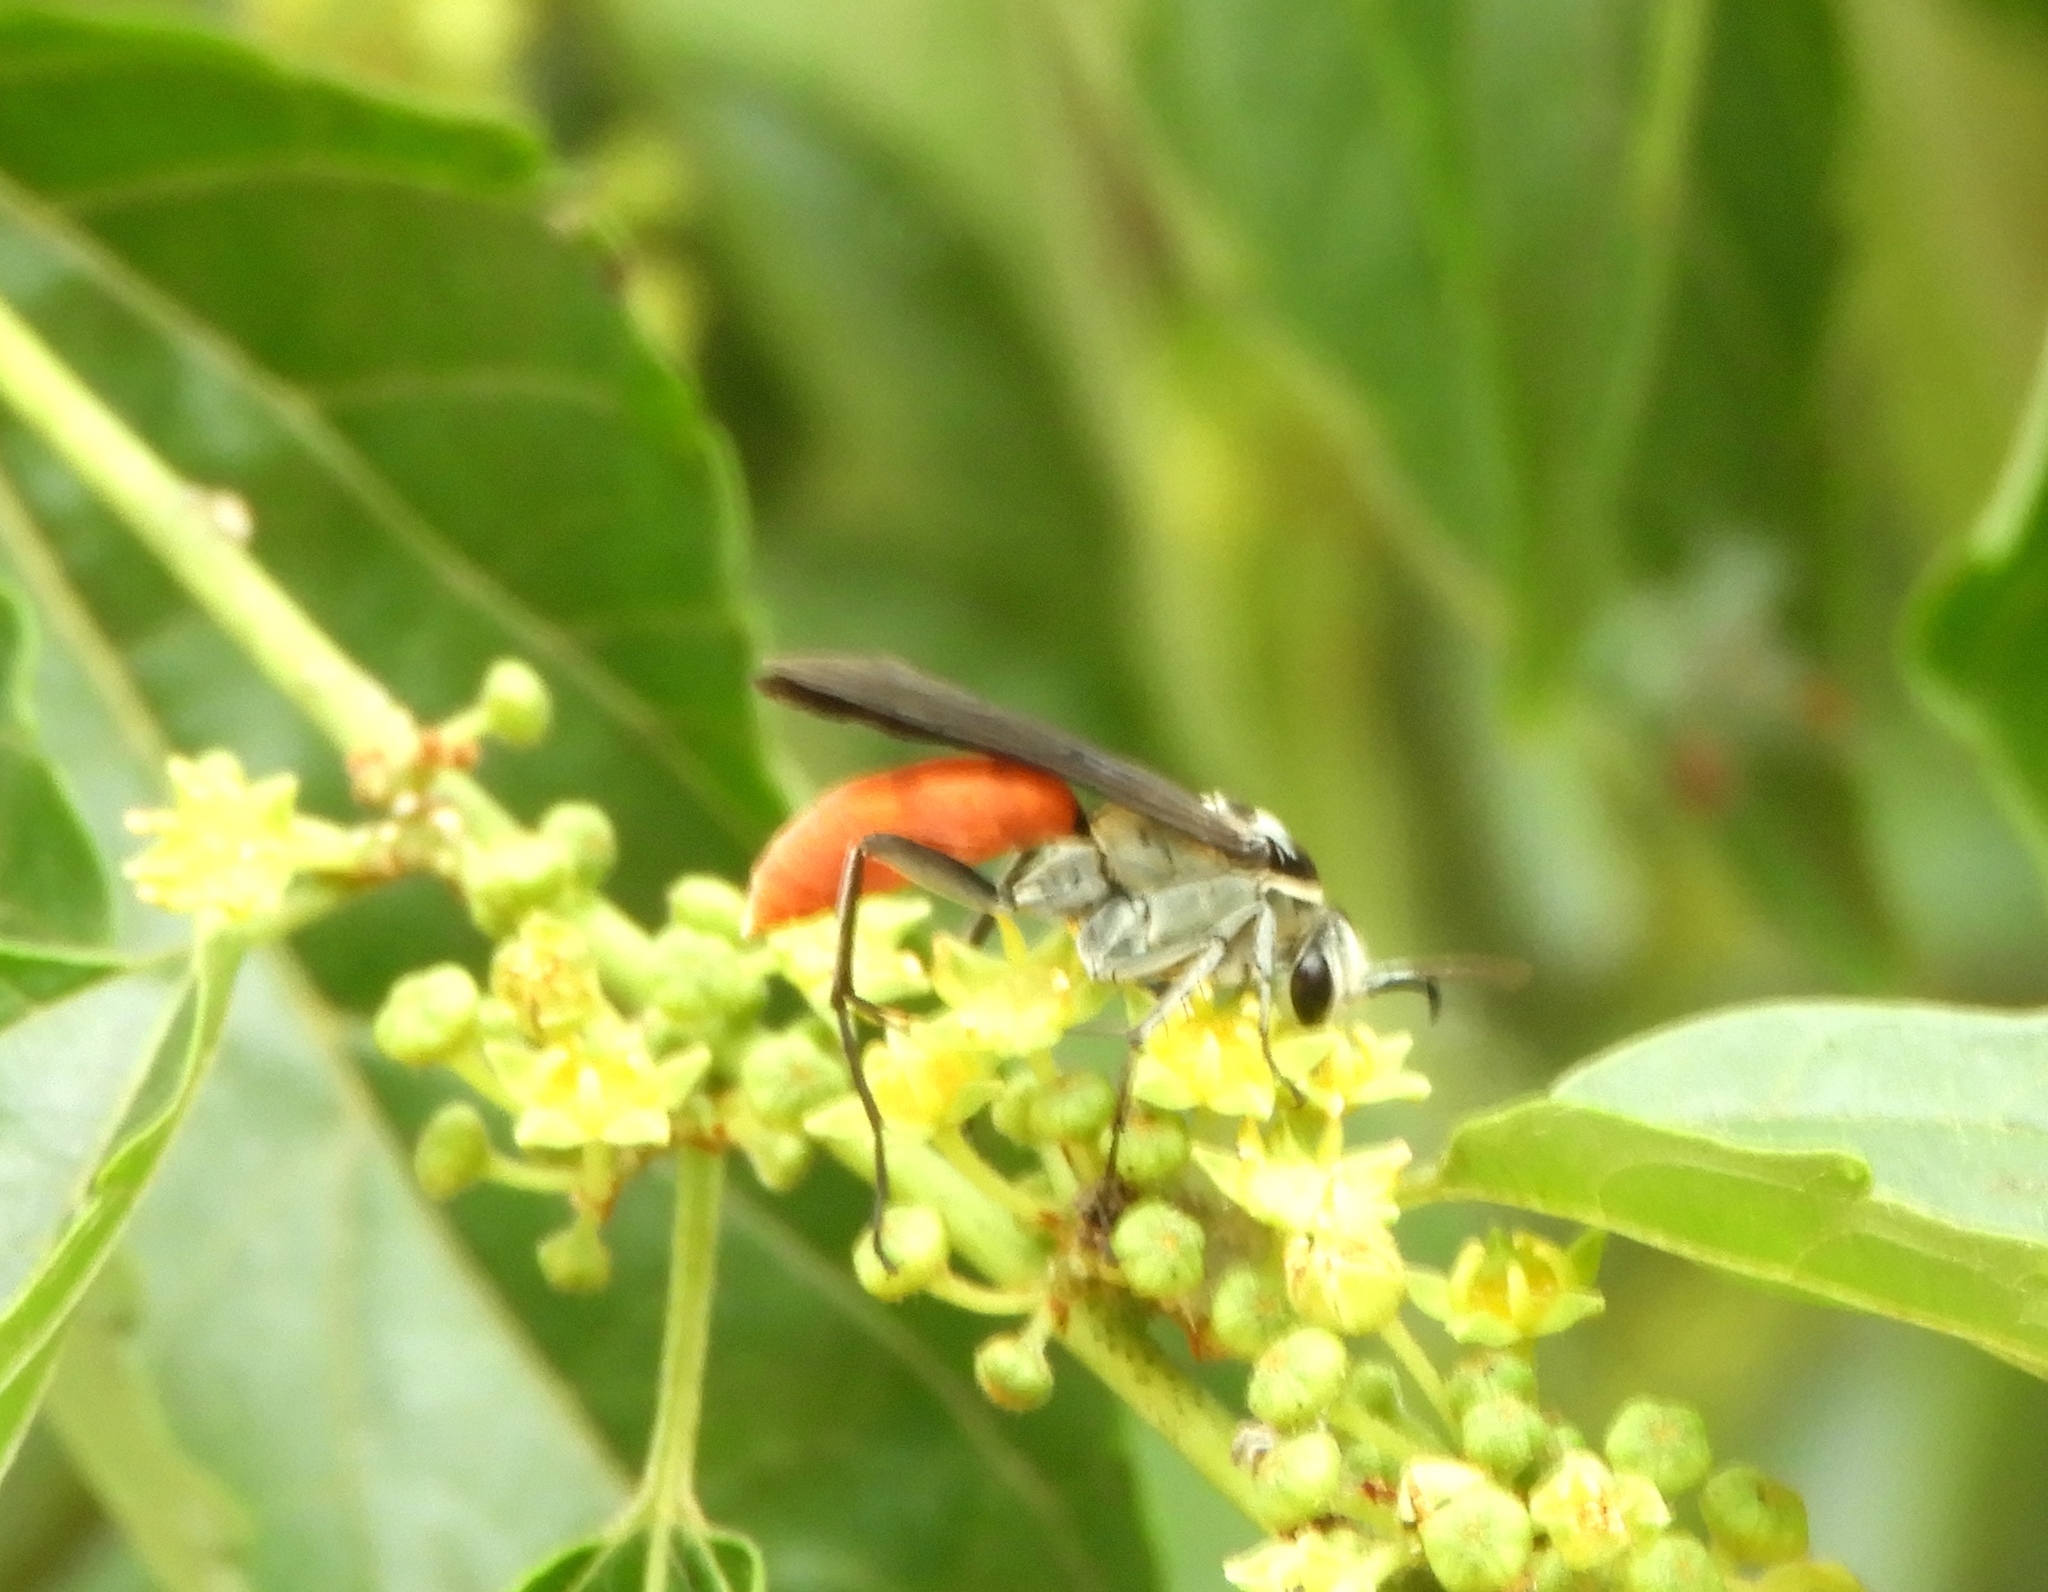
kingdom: Animalia
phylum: Arthropoda
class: Insecta
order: Hymenoptera
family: Pompilidae
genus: Xerochares
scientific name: Xerochares expulsus
